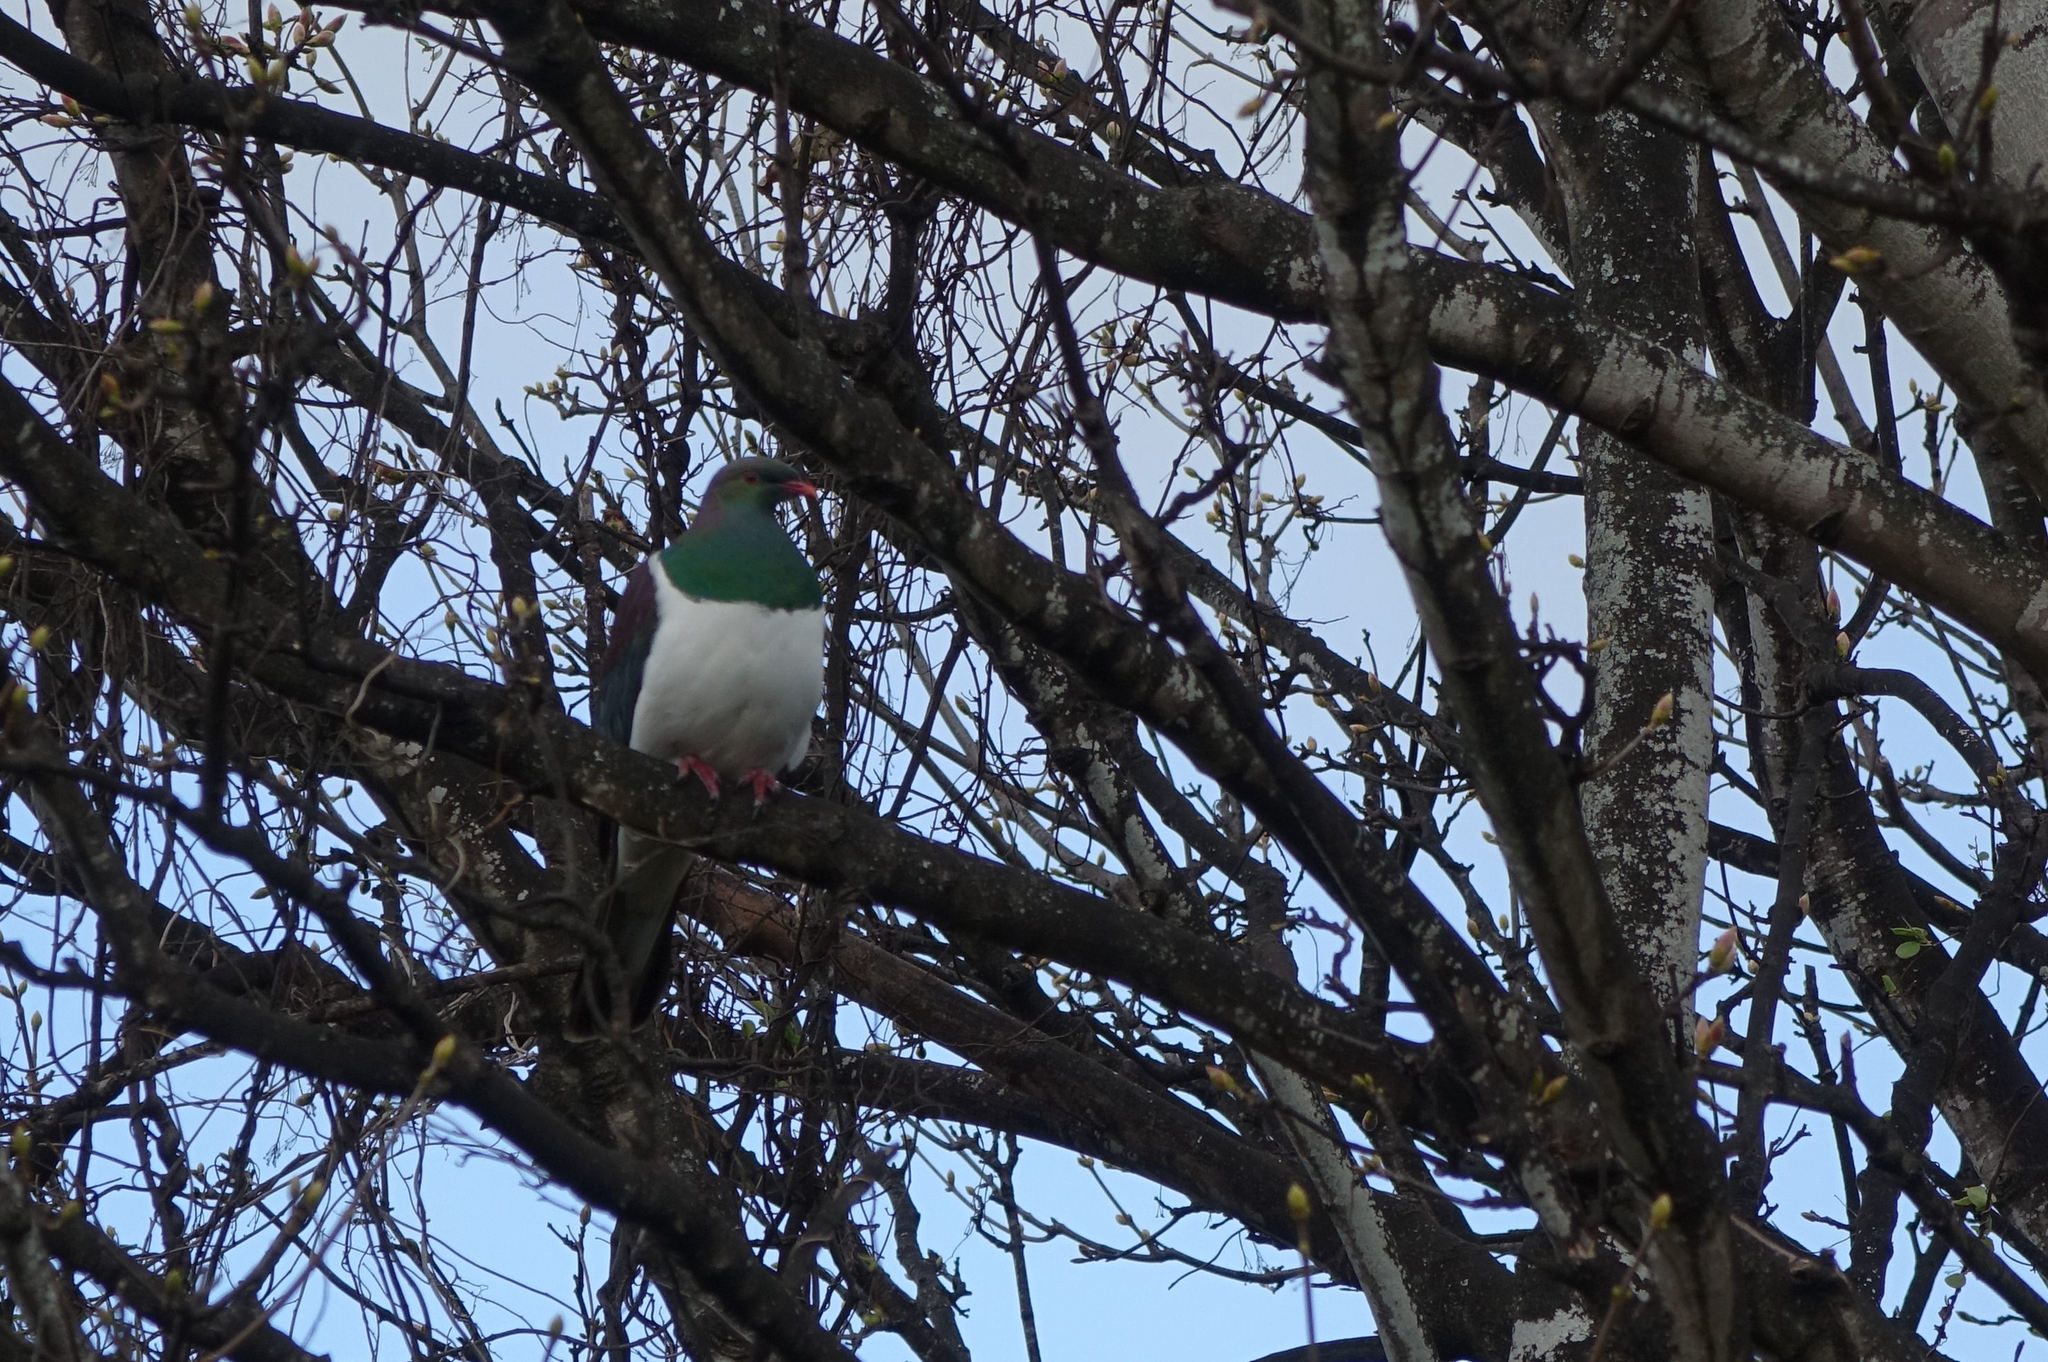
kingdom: Animalia
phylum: Chordata
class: Aves
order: Columbiformes
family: Columbidae
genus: Hemiphaga
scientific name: Hemiphaga novaeseelandiae
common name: New zealand pigeon
